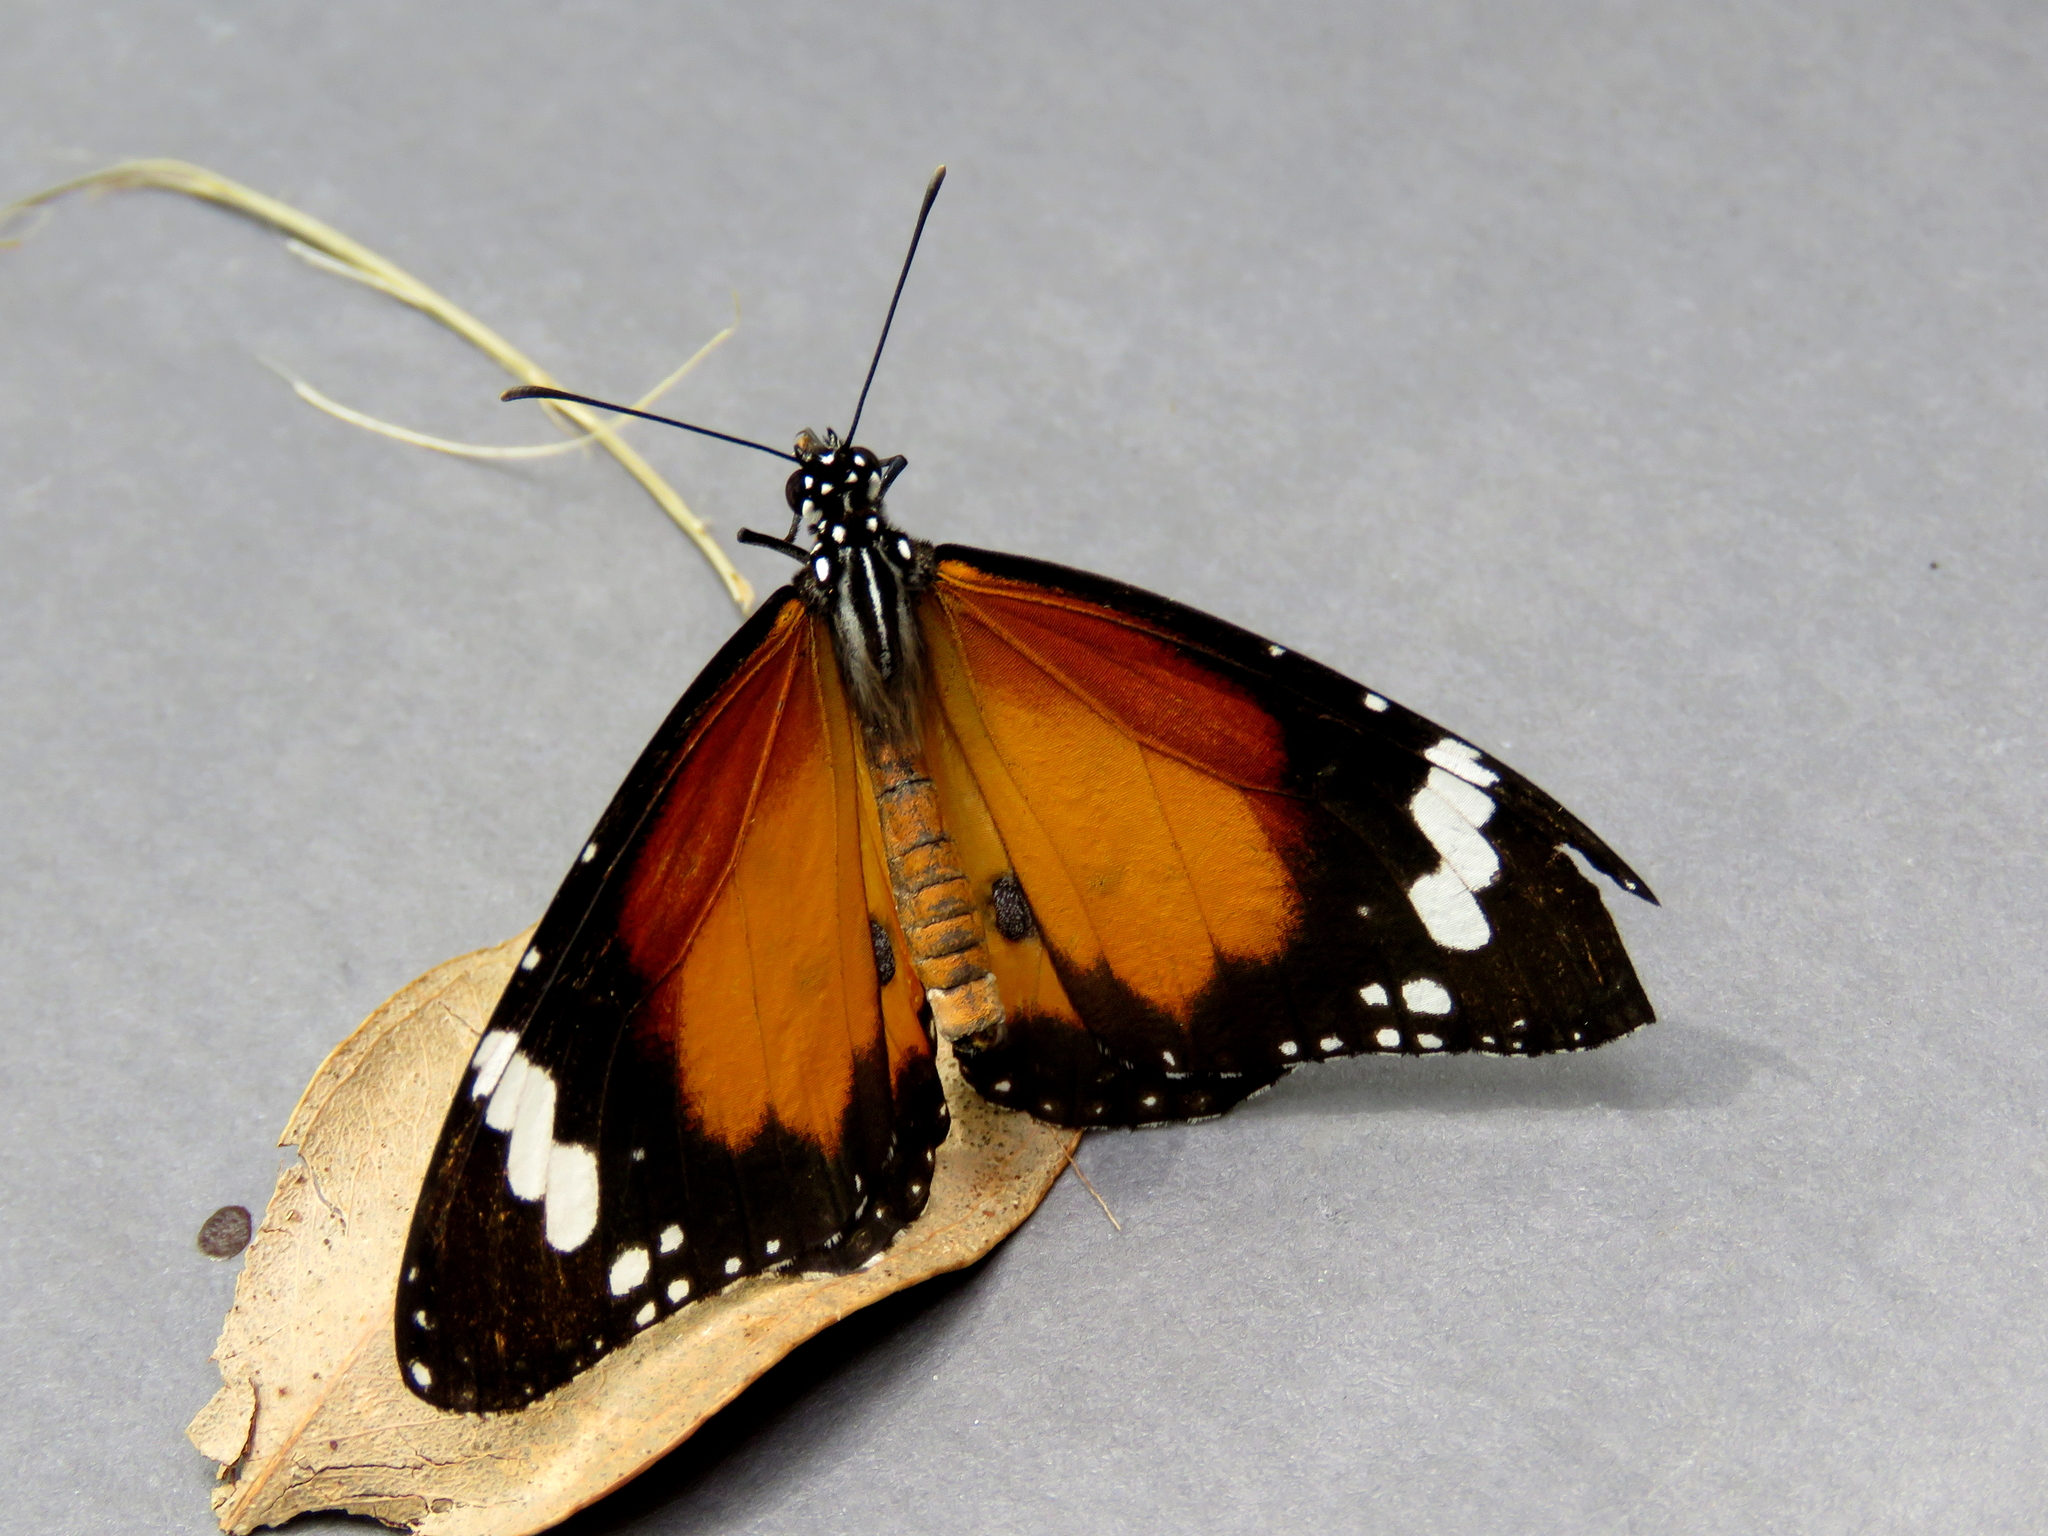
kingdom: Animalia
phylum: Arthropoda
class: Insecta
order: Lepidoptera
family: Nymphalidae
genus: Danaus
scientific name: Danaus chrysippus
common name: Plain tiger
